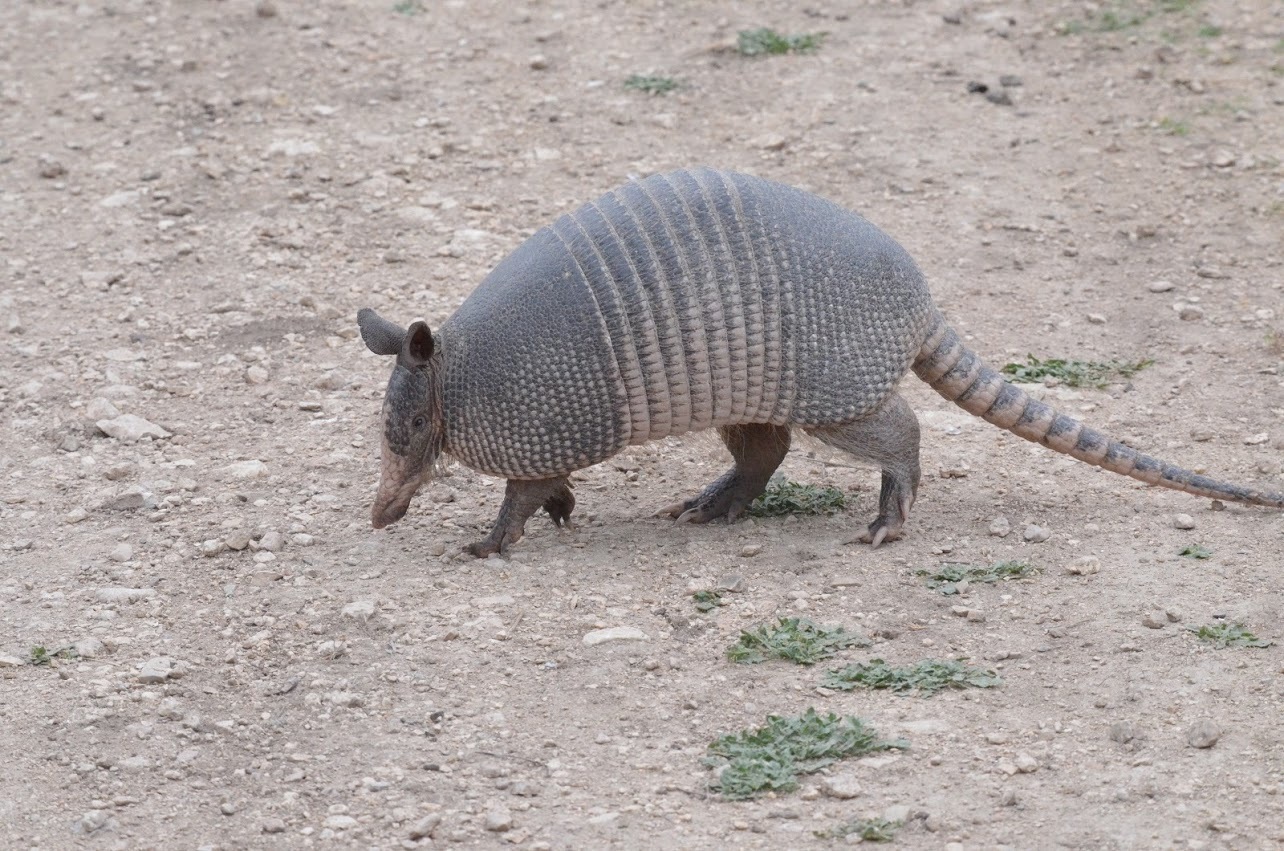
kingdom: Animalia
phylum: Chordata
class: Mammalia
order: Cingulata
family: Dasypodidae
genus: Dasypus
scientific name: Dasypus novemcinctus
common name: Nine-banded armadillo
